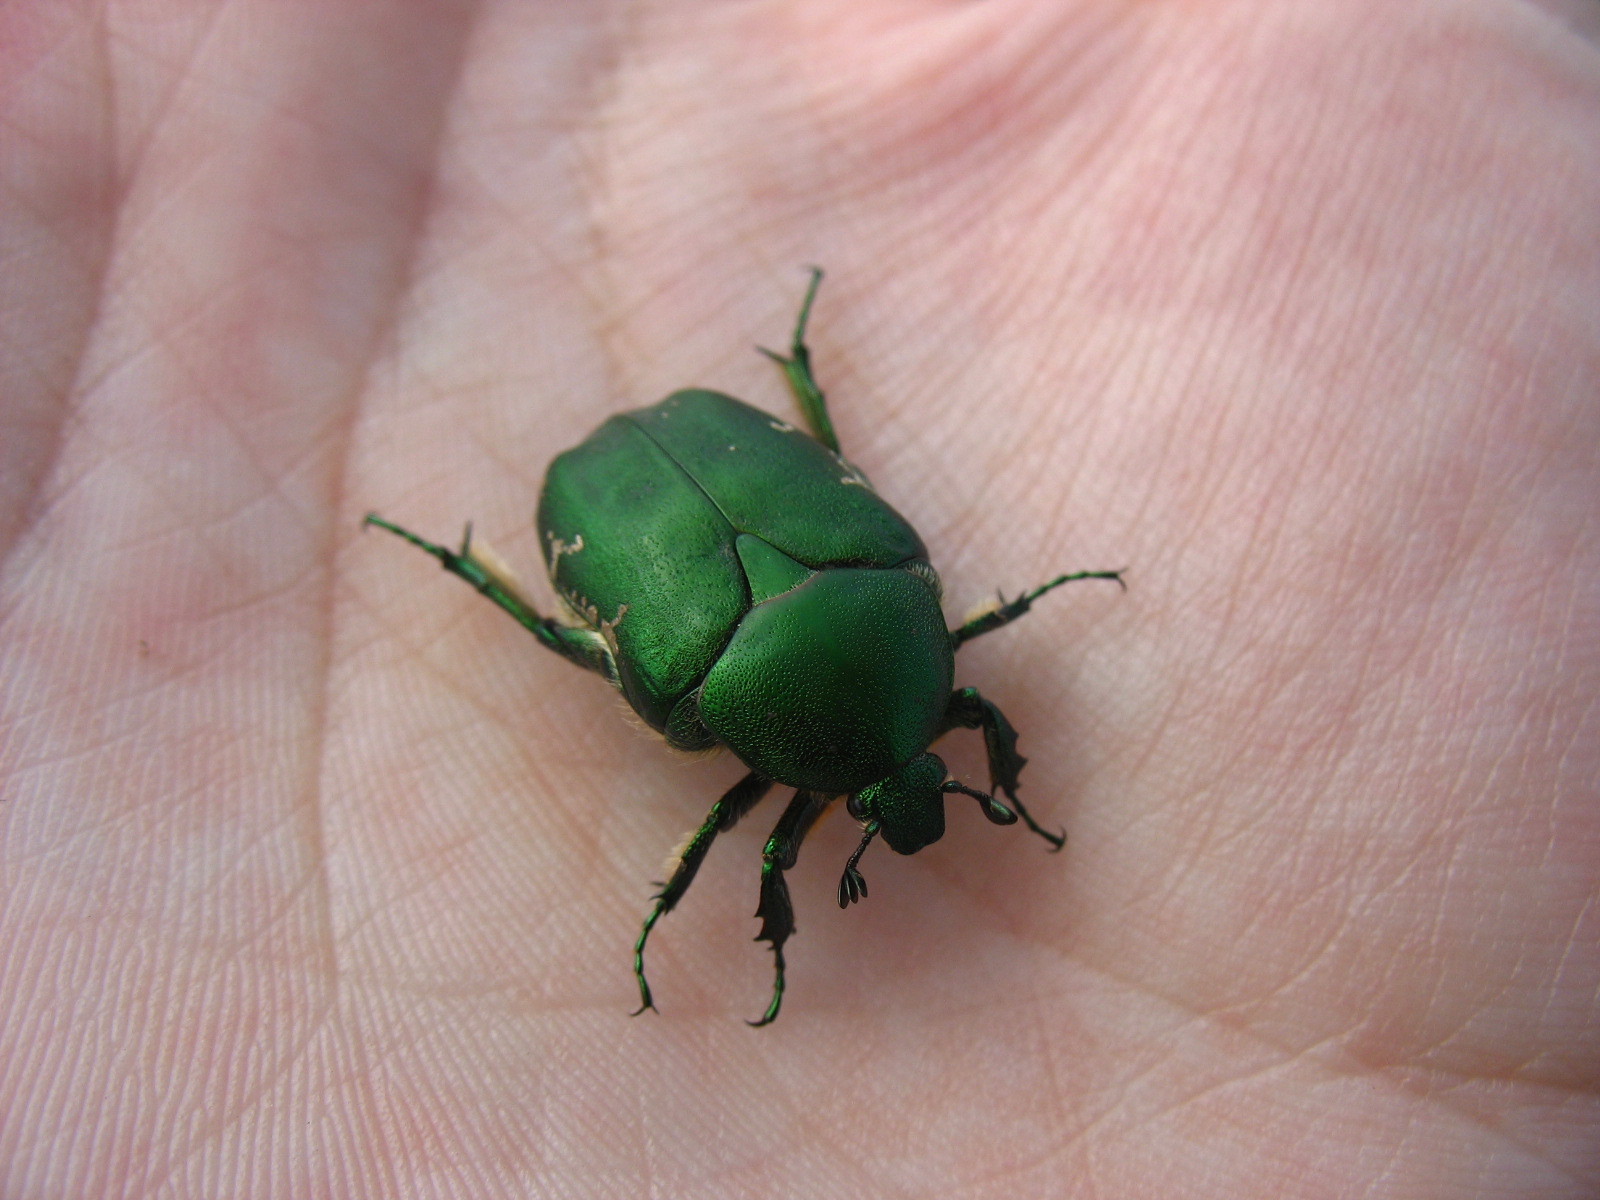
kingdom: Animalia
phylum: Arthropoda
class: Insecta
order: Coleoptera
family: Scarabaeidae
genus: Protaetia
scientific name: Protaetia ungarica
